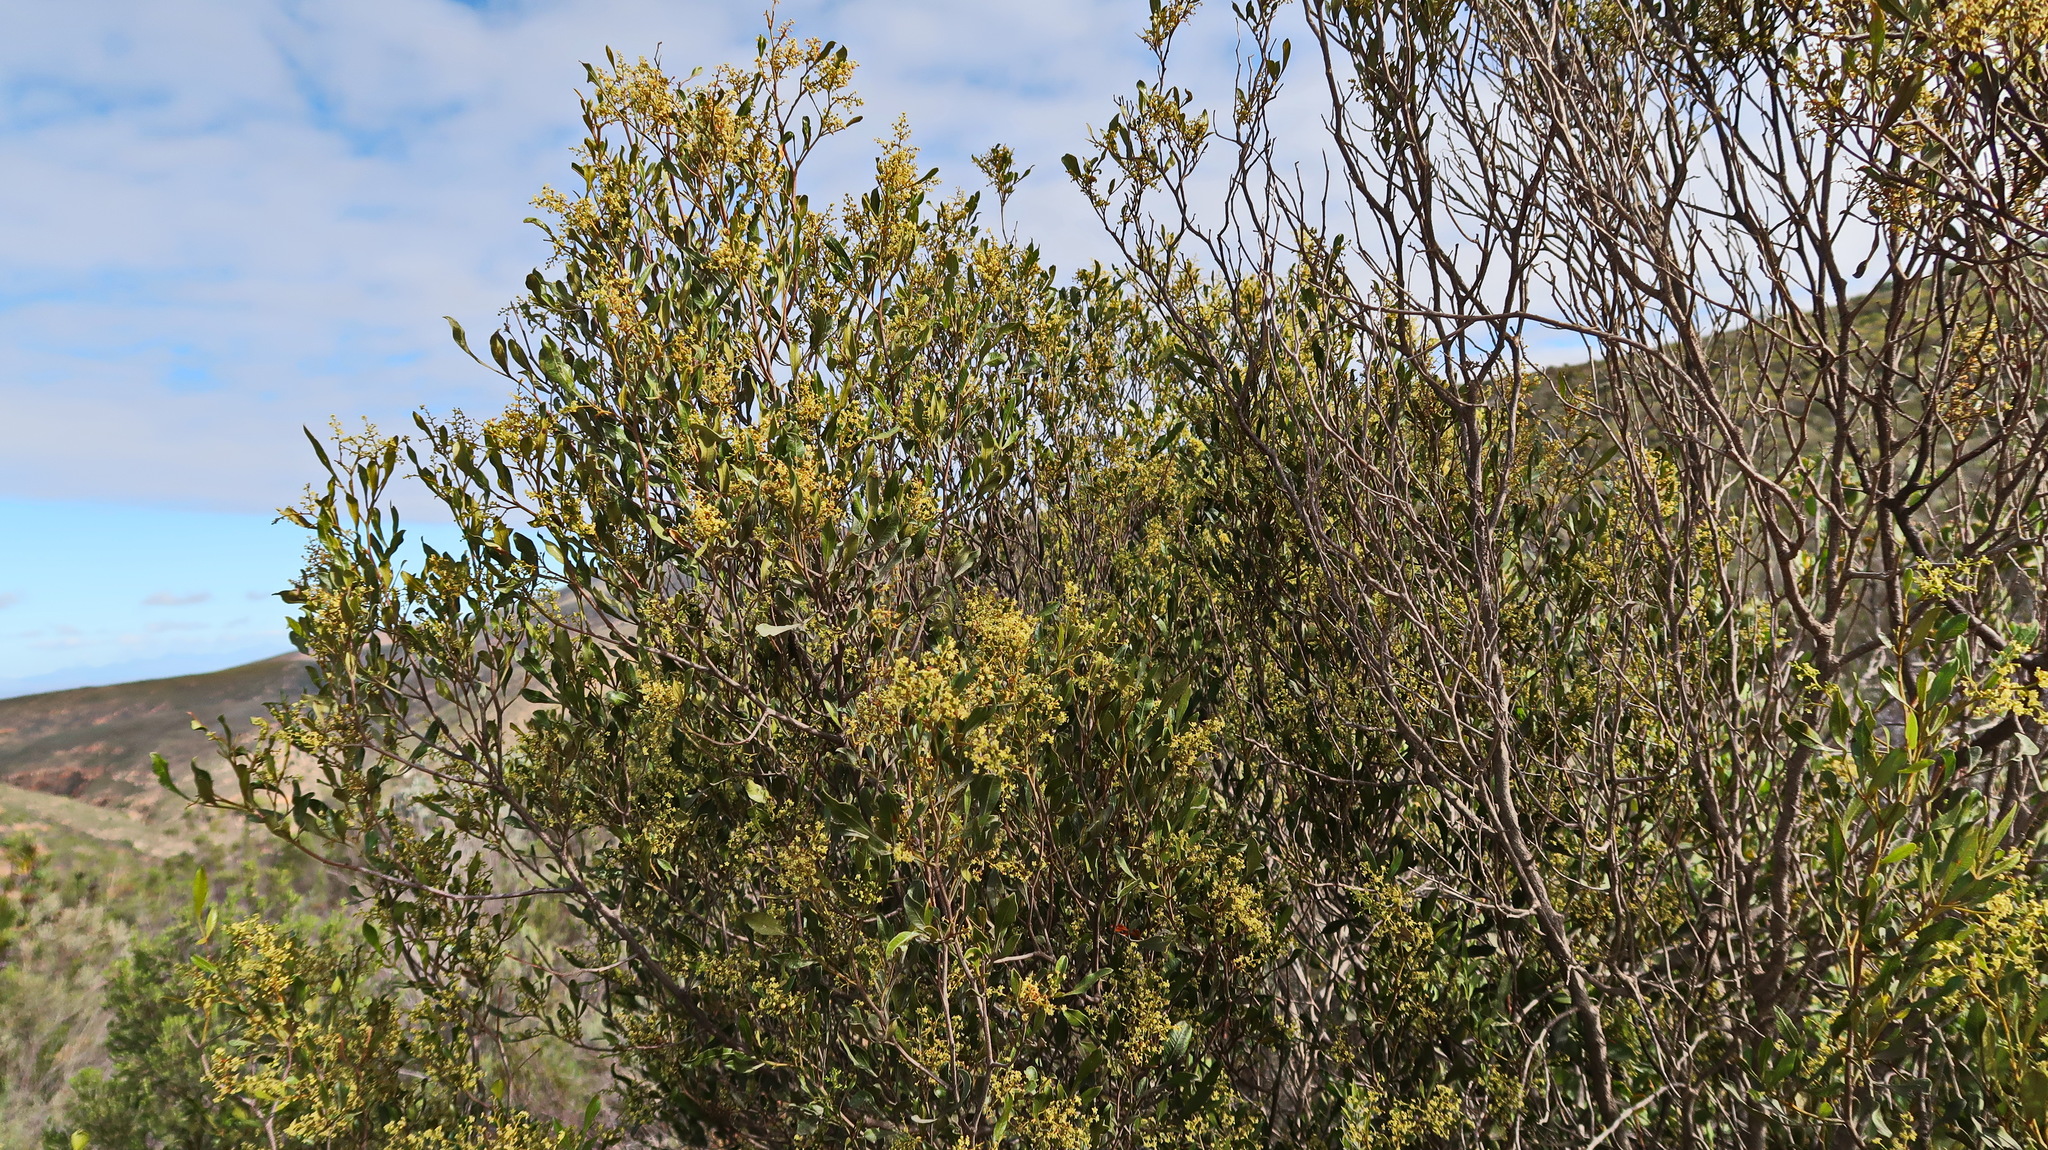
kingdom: Plantae
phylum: Tracheophyta
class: Magnoliopsida
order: Sapindales
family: Anacardiaceae
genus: Searsia
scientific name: Searsia pallens
